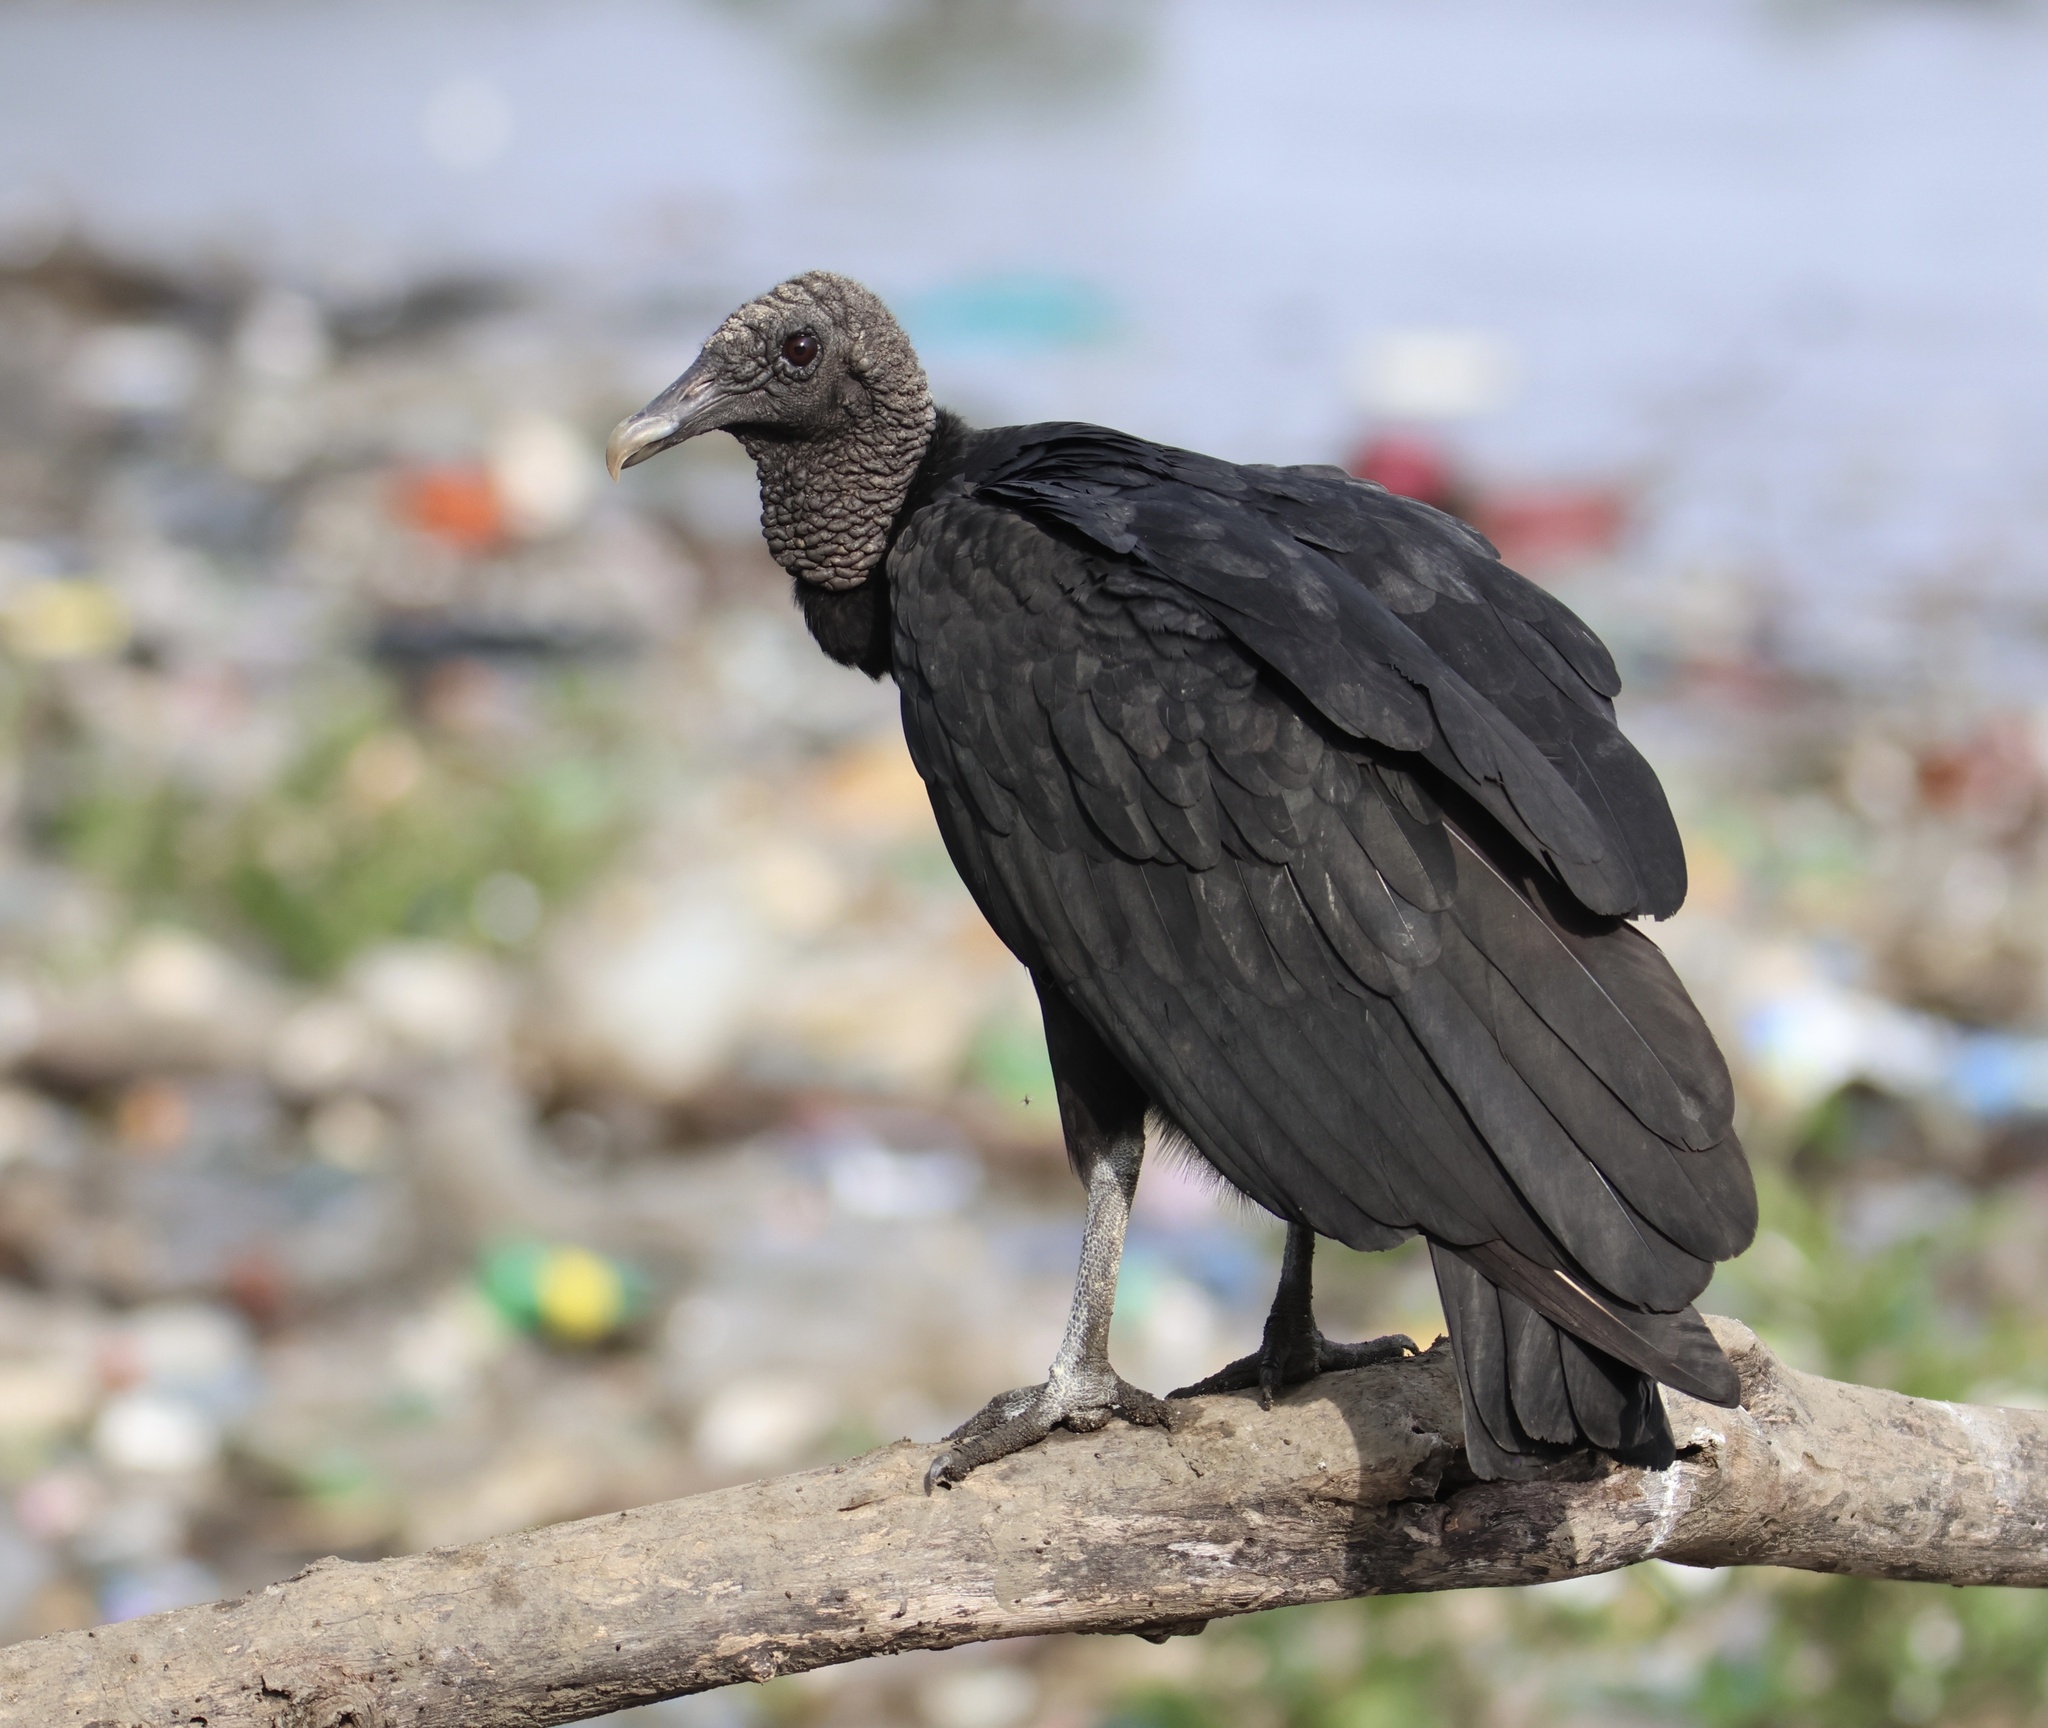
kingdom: Animalia
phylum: Chordata
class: Aves
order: Accipitriformes
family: Cathartidae
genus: Coragyps
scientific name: Coragyps atratus
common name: Black vulture
